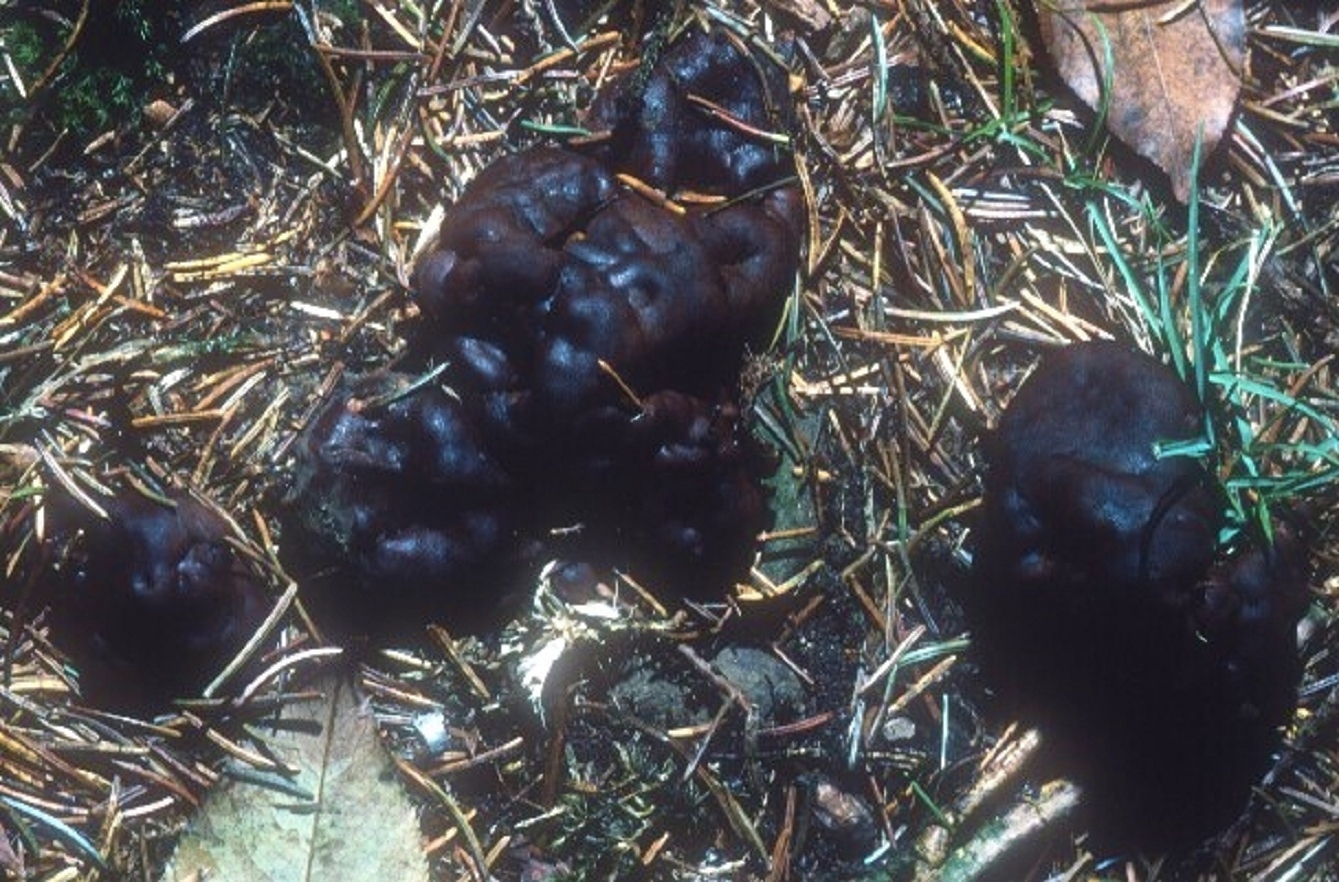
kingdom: Fungi
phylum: Ascomycota
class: Pezizomycetes
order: Pezizales
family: Rhizinaceae
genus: Rhizina
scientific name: Rhizina undulata
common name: Pine firefungus
